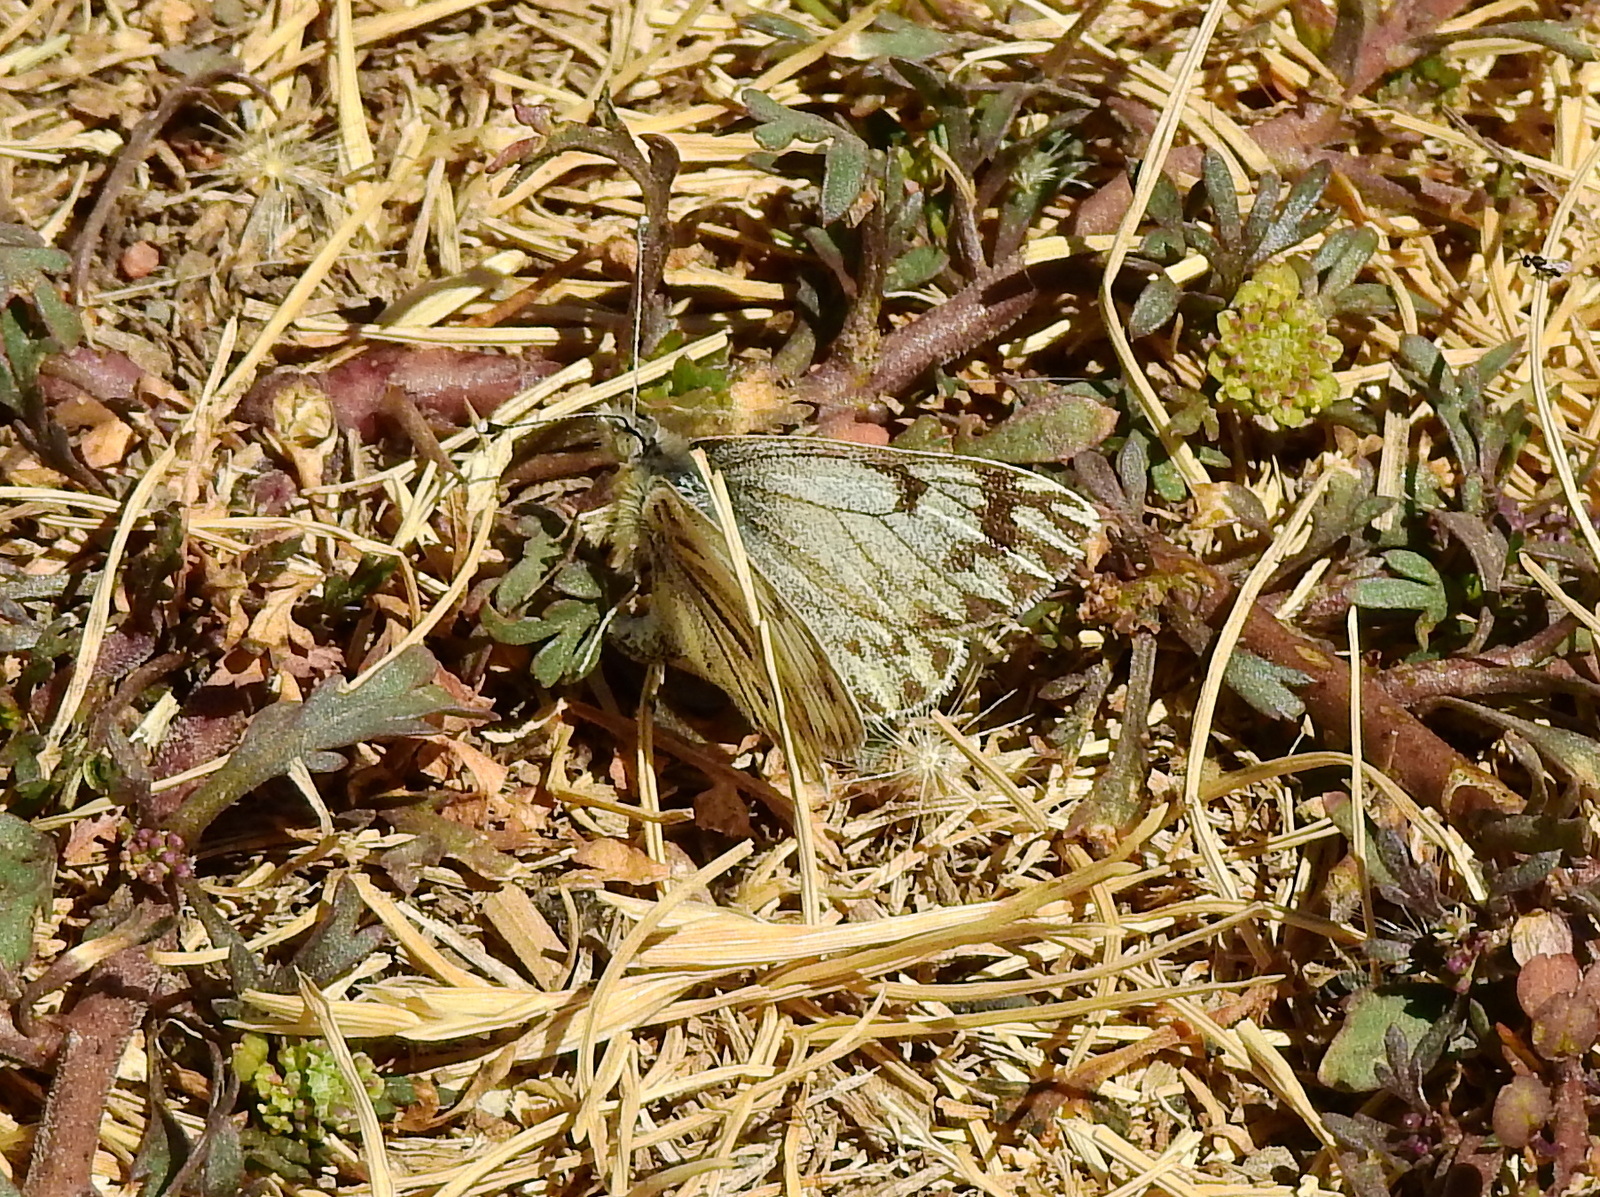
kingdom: Animalia
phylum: Arthropoda
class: Insecta
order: Lepidoptera
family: Pieridae
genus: Phulia
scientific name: Phulia nymphula
